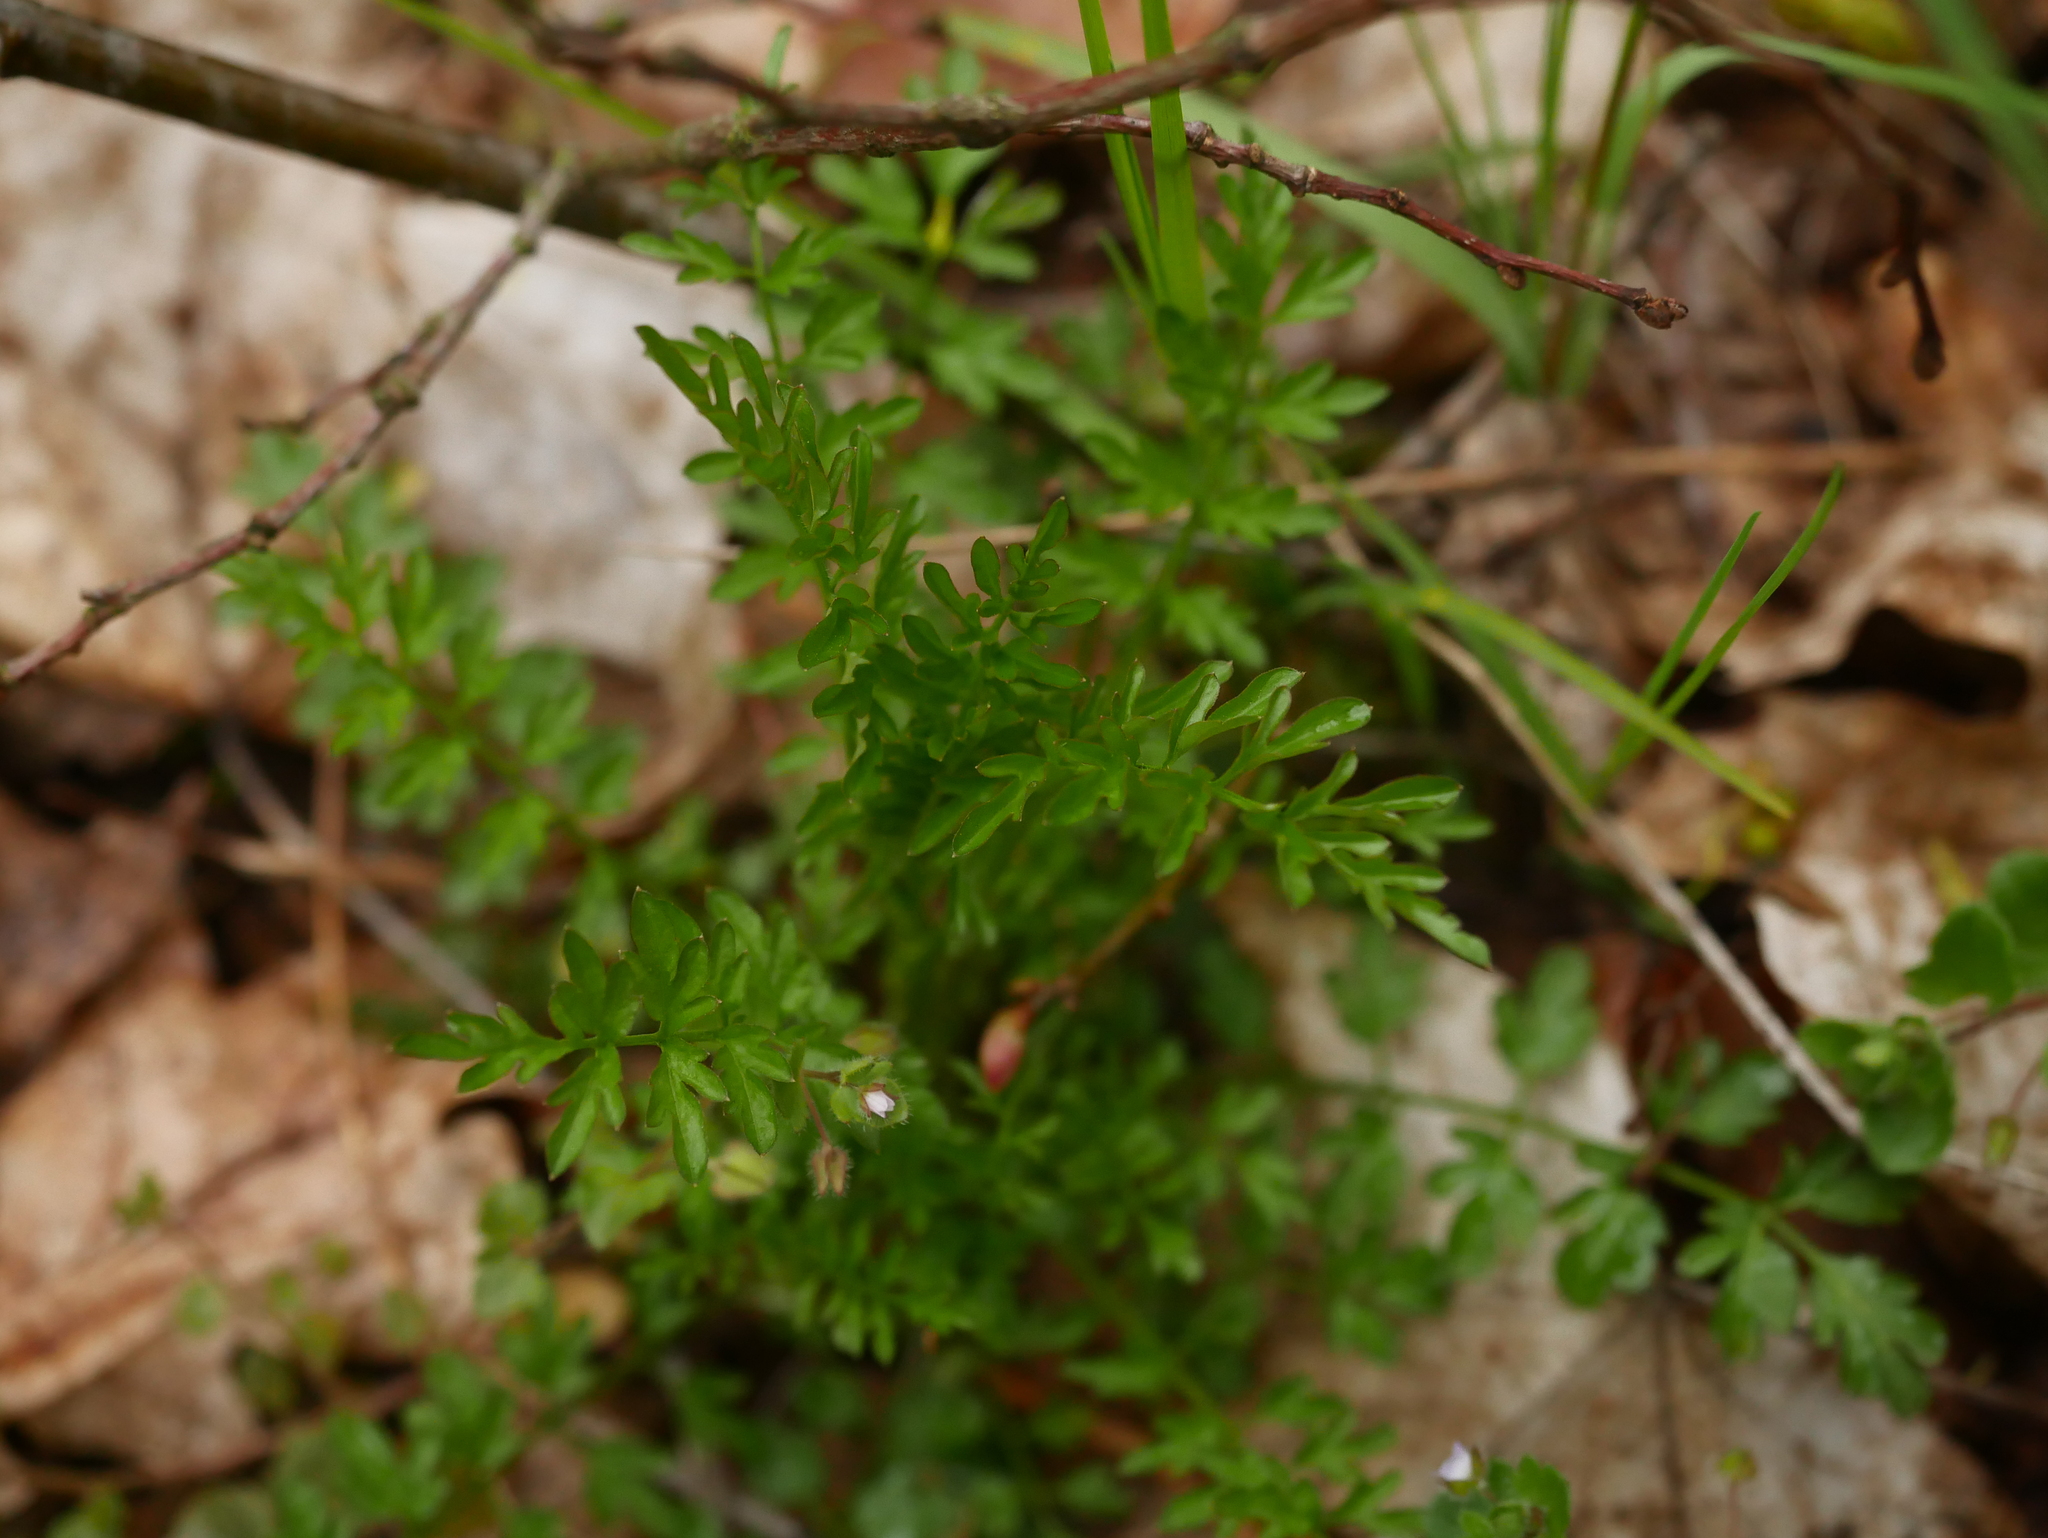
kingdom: Plantae
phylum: Tracheophyta
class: Magnoliopsida
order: Brassicales
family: Brassicaceae
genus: Cardamine
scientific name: Cardamine impatiens
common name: Narrow-leaved bitter-cress
